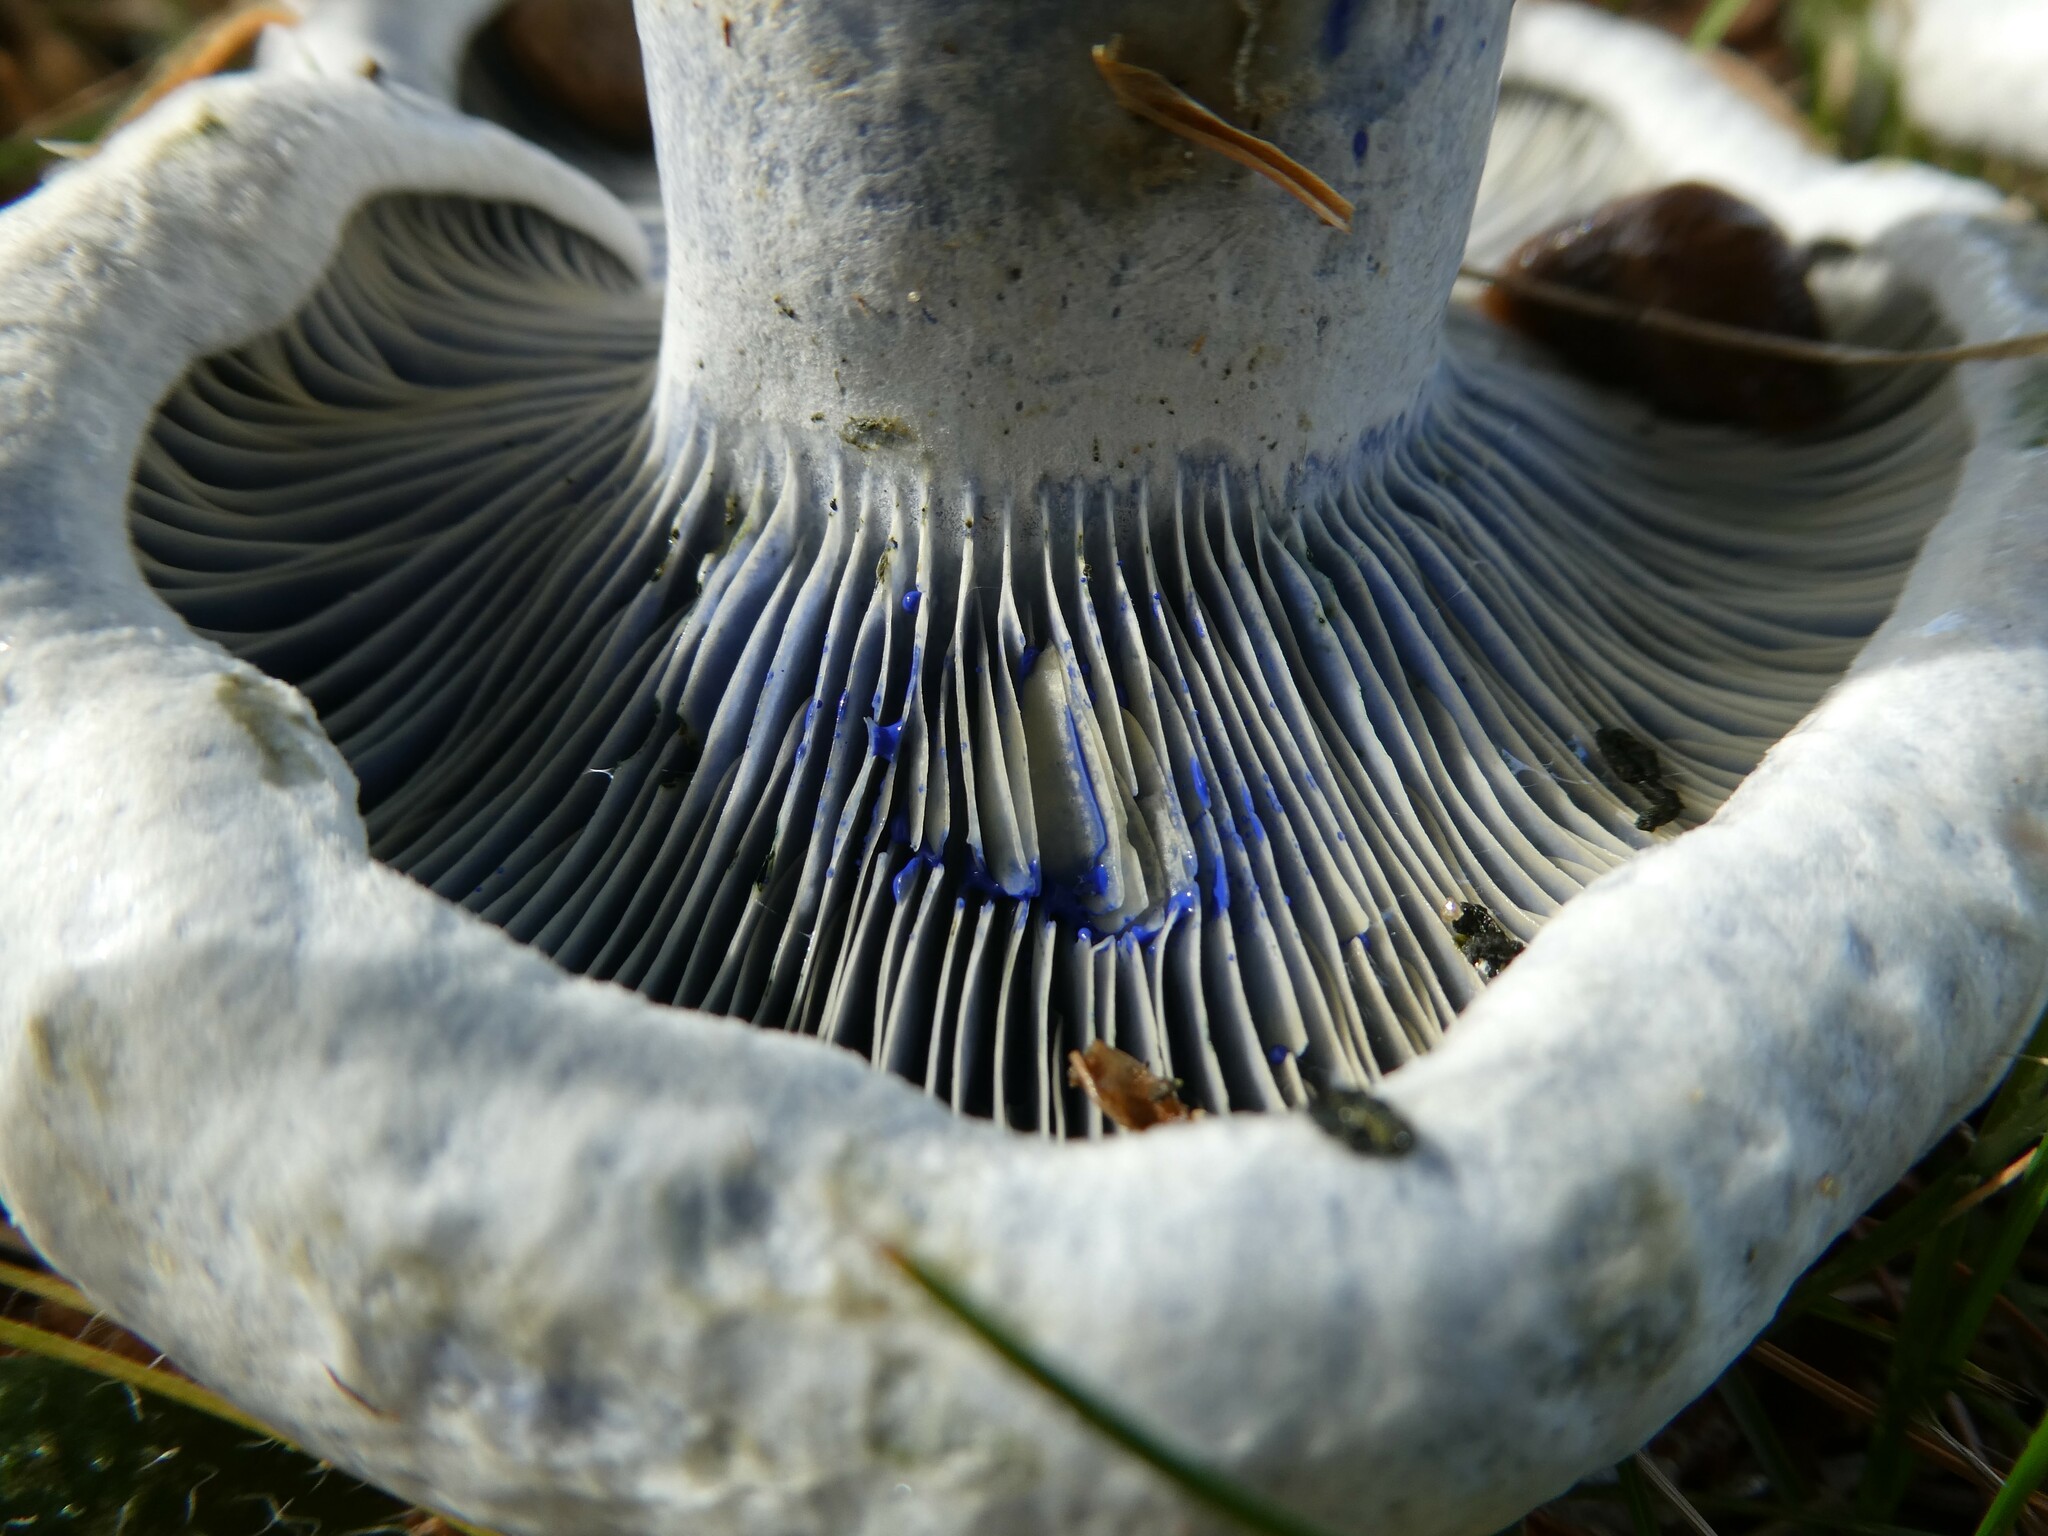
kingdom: Fungi
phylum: Basidiomycota
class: Agaricomycetes
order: Russulales
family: Russulaceae
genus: Lactarius
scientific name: Lactarius indigo
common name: Indigo milk cap
